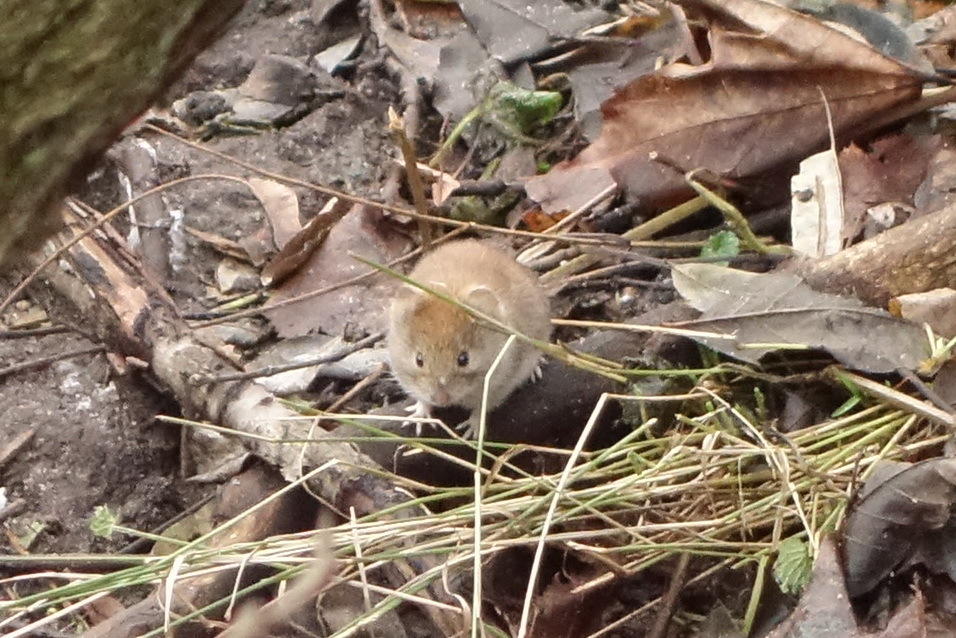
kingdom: Animalia
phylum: Chordata
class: Mammalia
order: Rodentia
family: Cricetidae
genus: Myodes
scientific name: Myodes glareolus
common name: Bank vole
